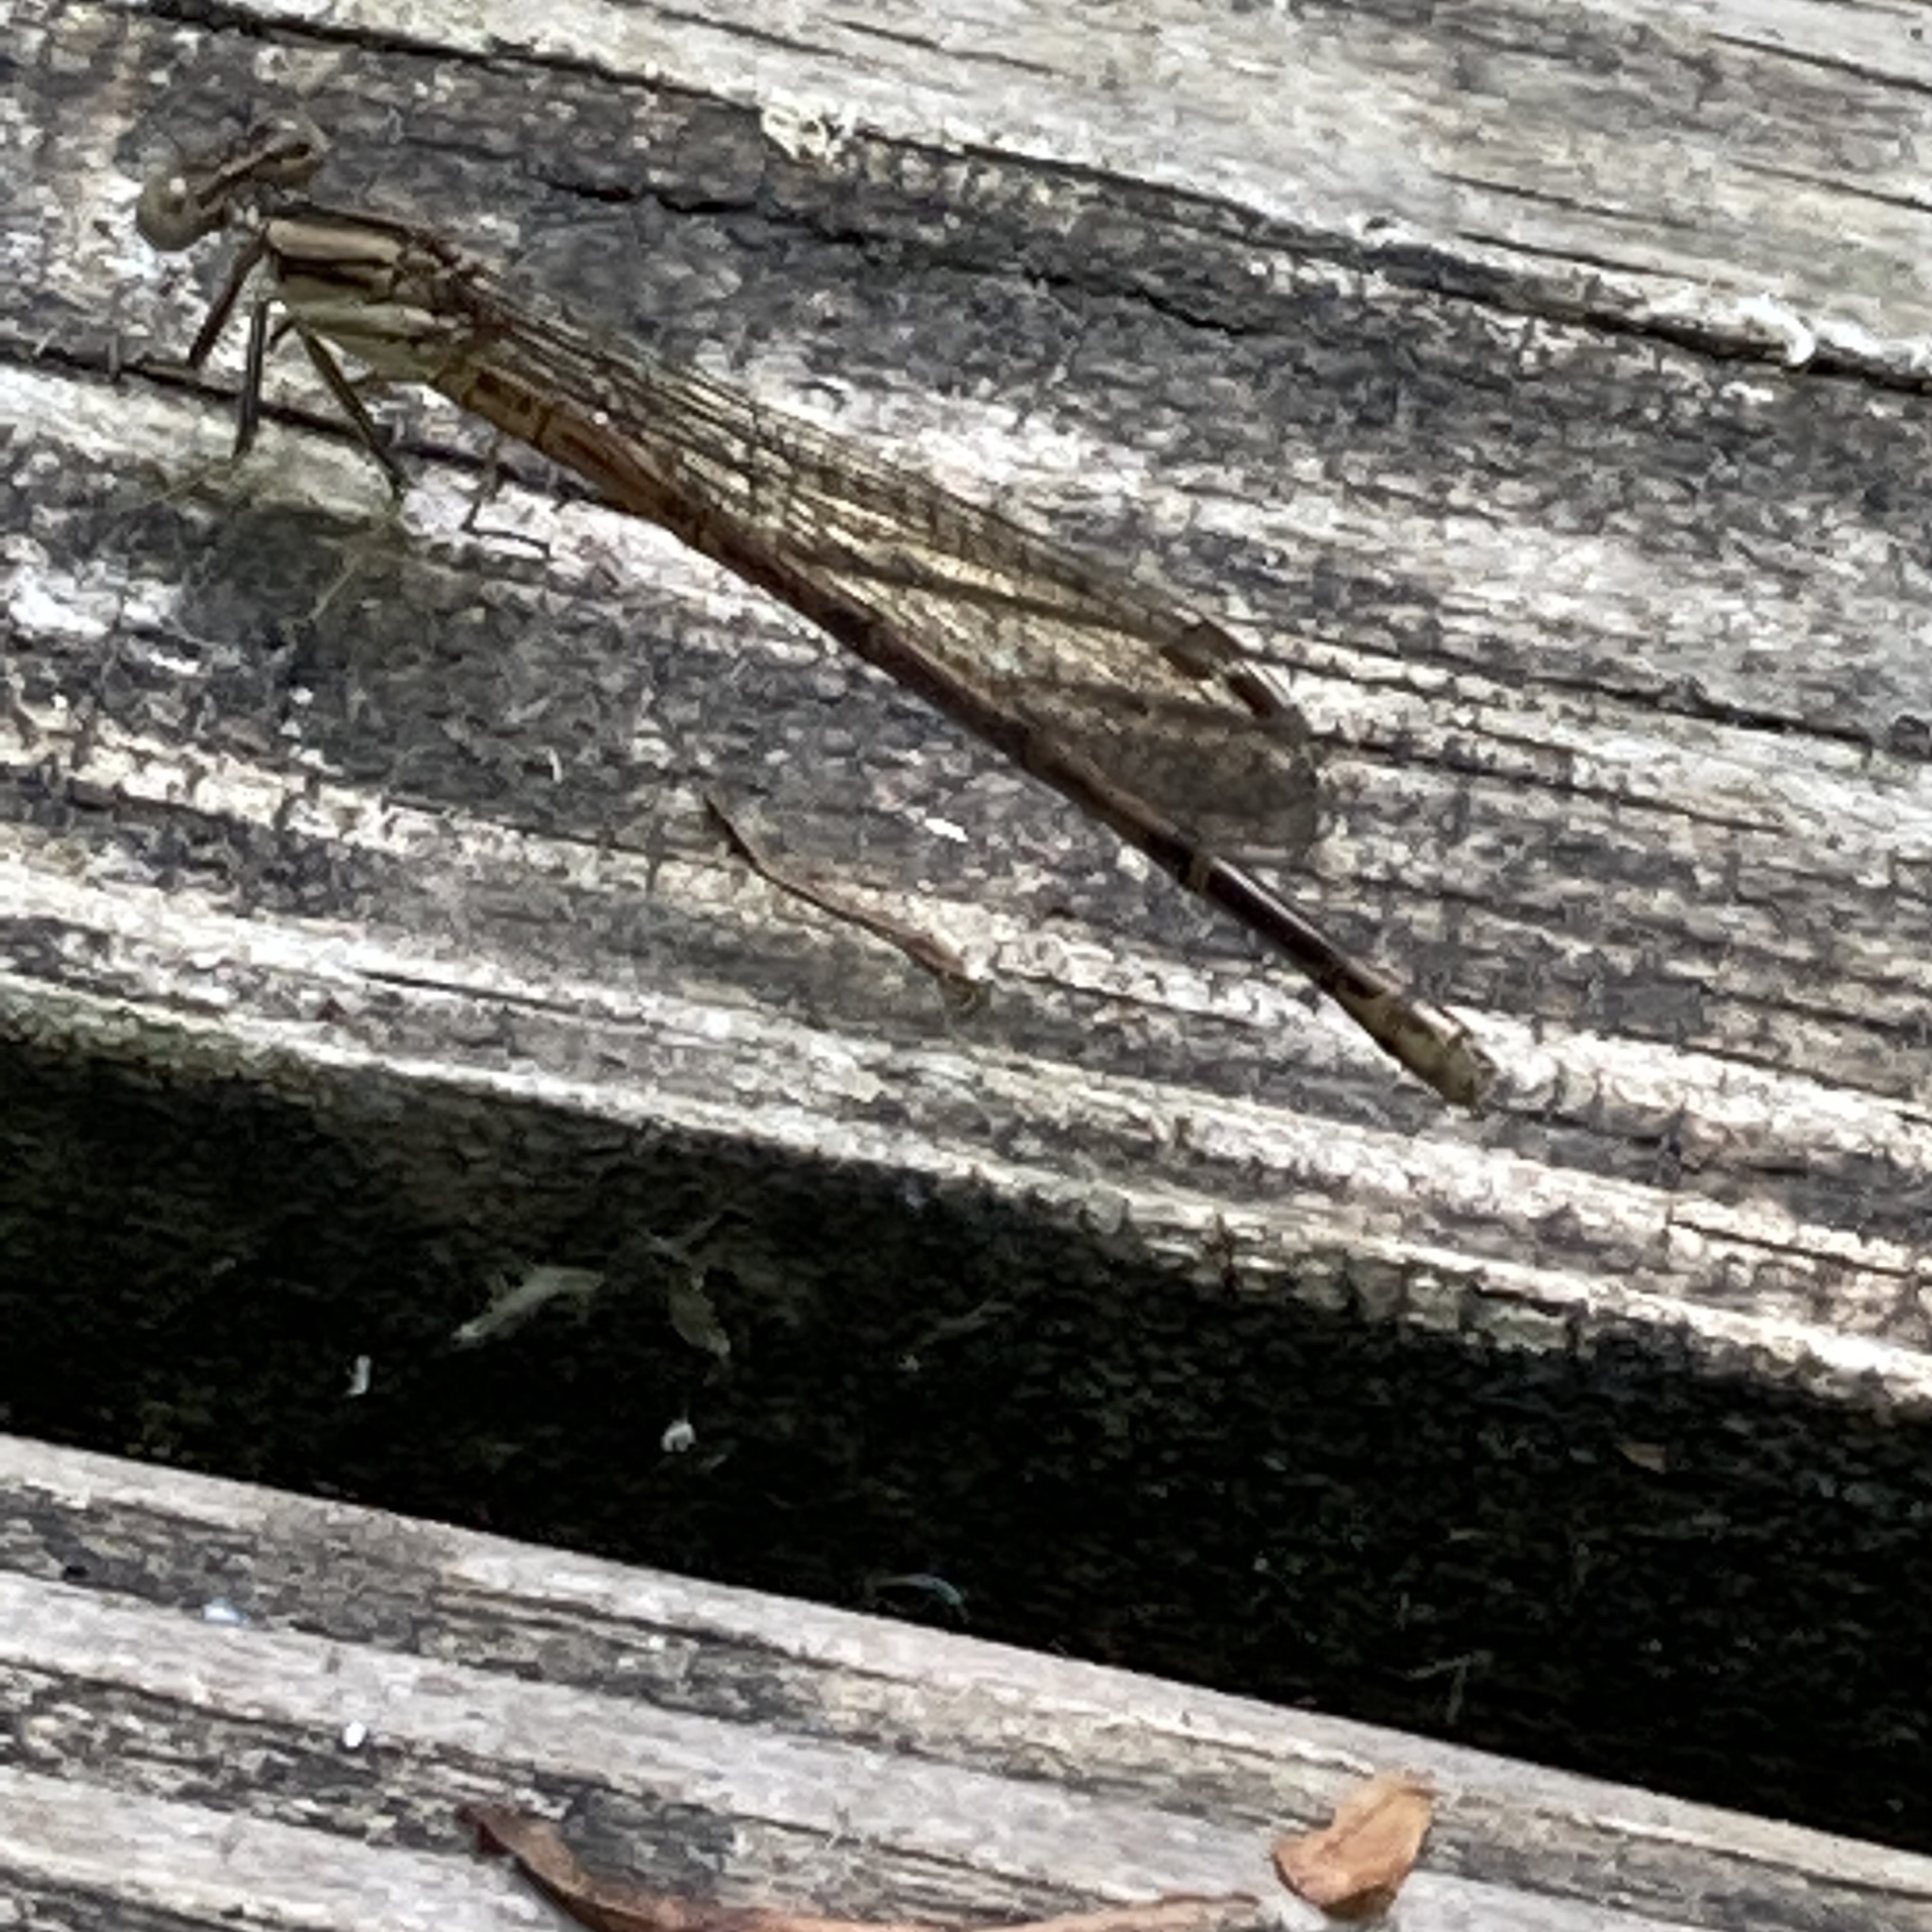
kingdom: Animalia
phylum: Arthropoda
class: Insecta
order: Odonata
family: Coenagrionidae
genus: Argia
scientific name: Argia fumipennis
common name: Variable dancer
